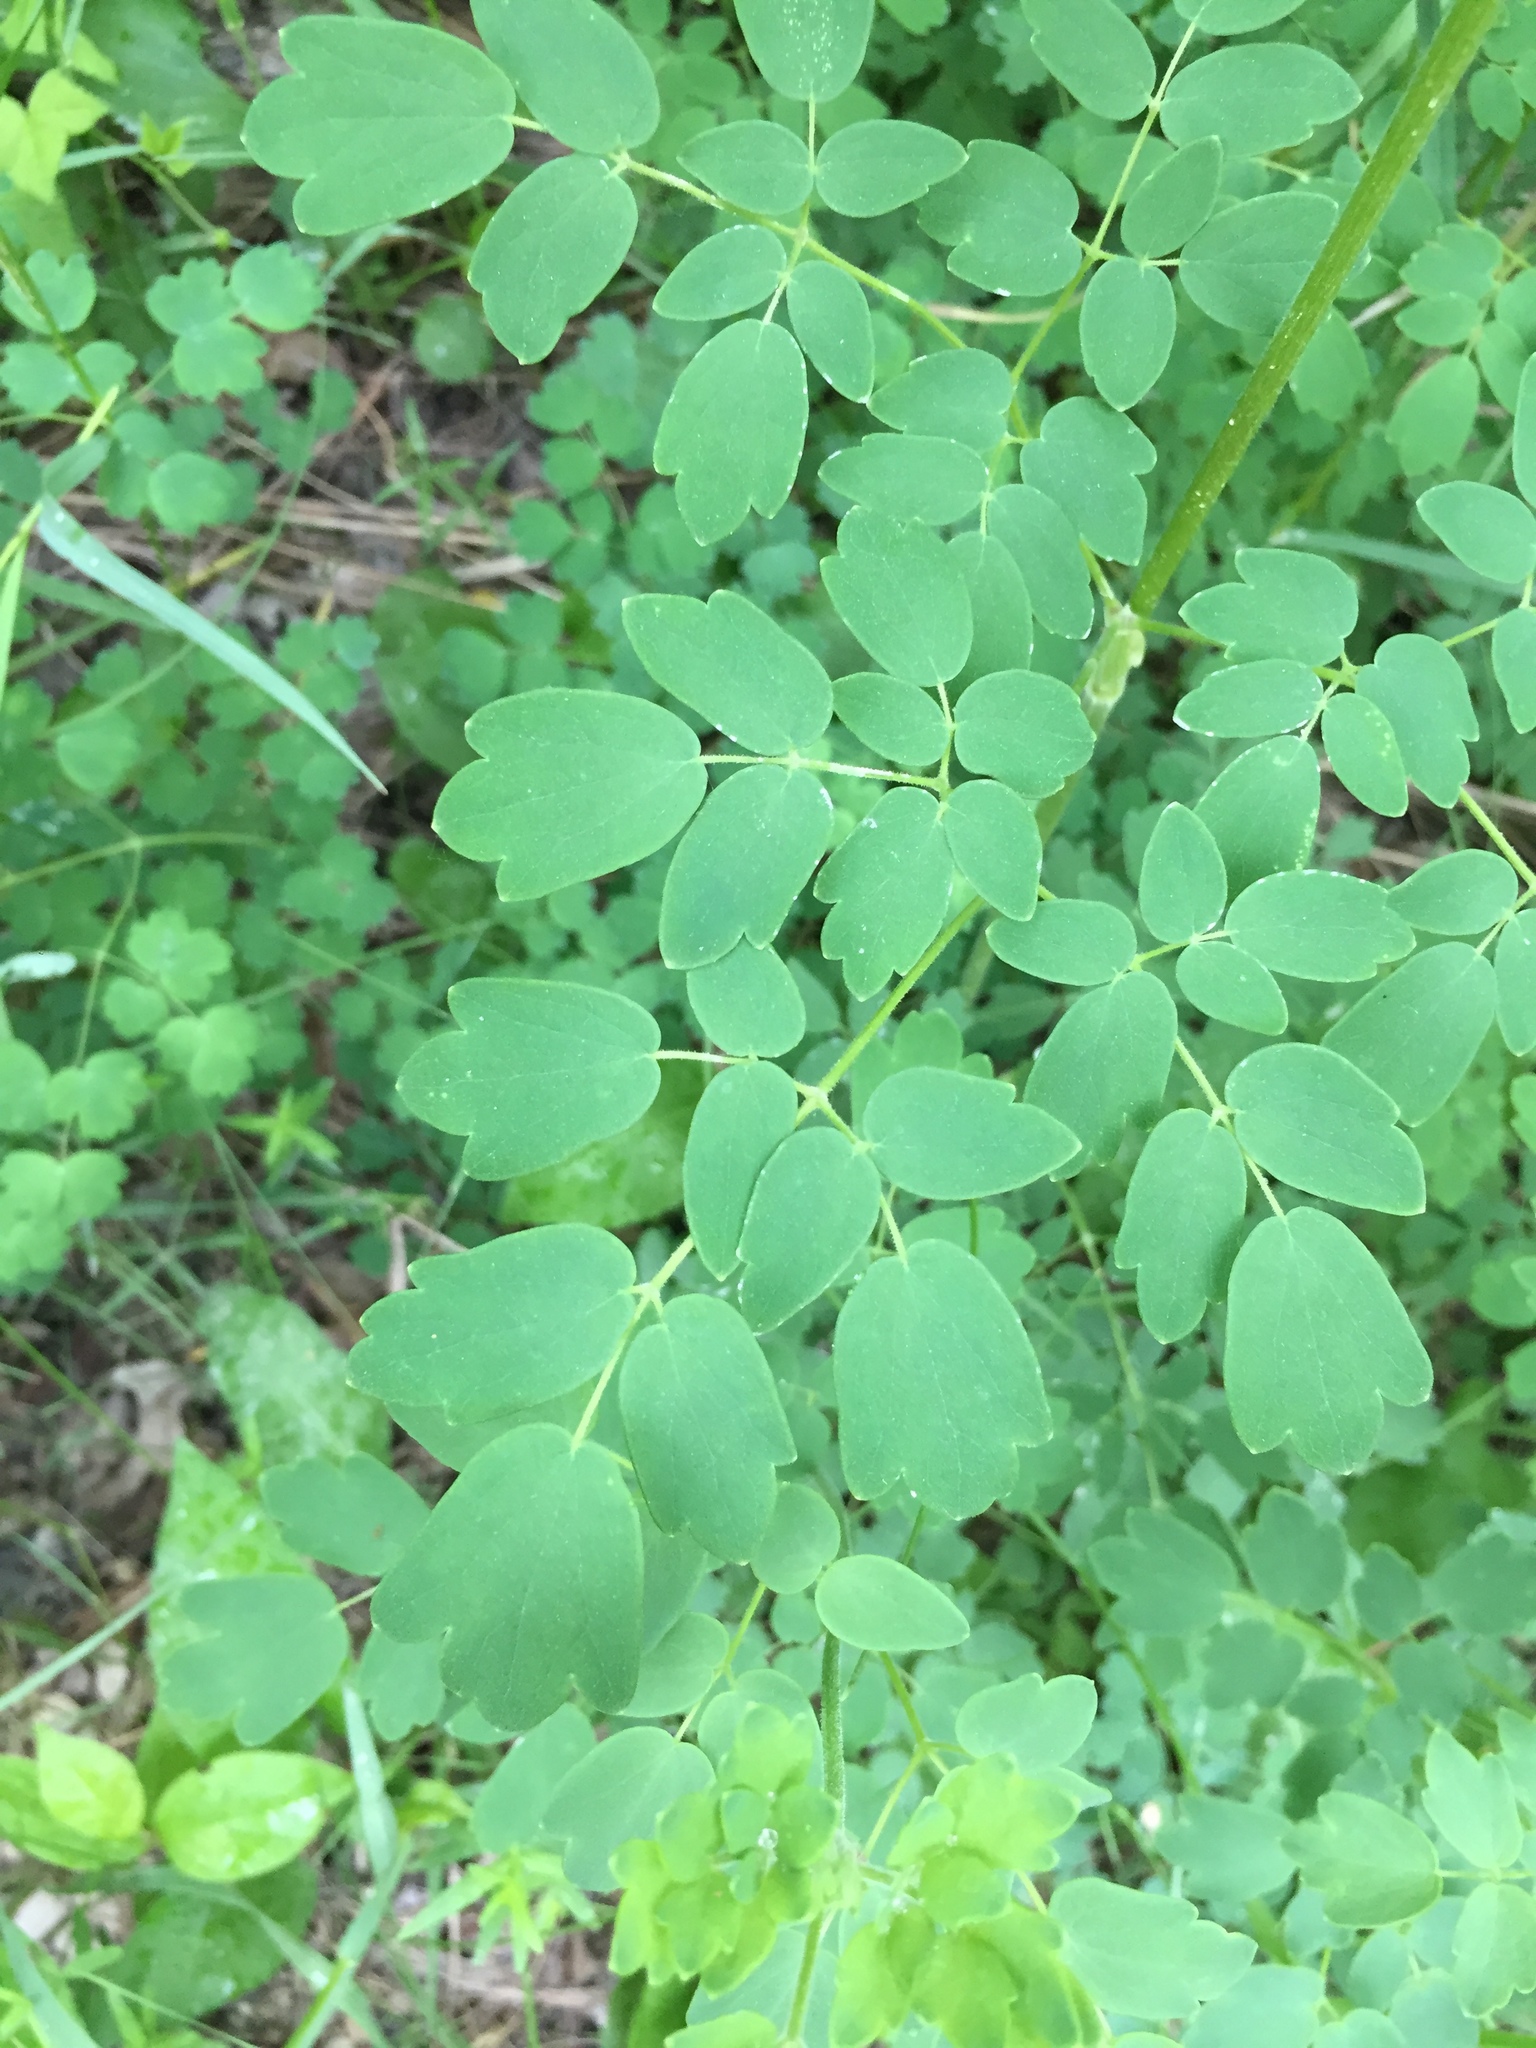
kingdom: Plantae
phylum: Tracheophyta
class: Magnoliopsida
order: Ranunculales
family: Ranunculaceae
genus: Thalictrum
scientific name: Thalictrum dasycarpum
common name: Purple meadow-rue
